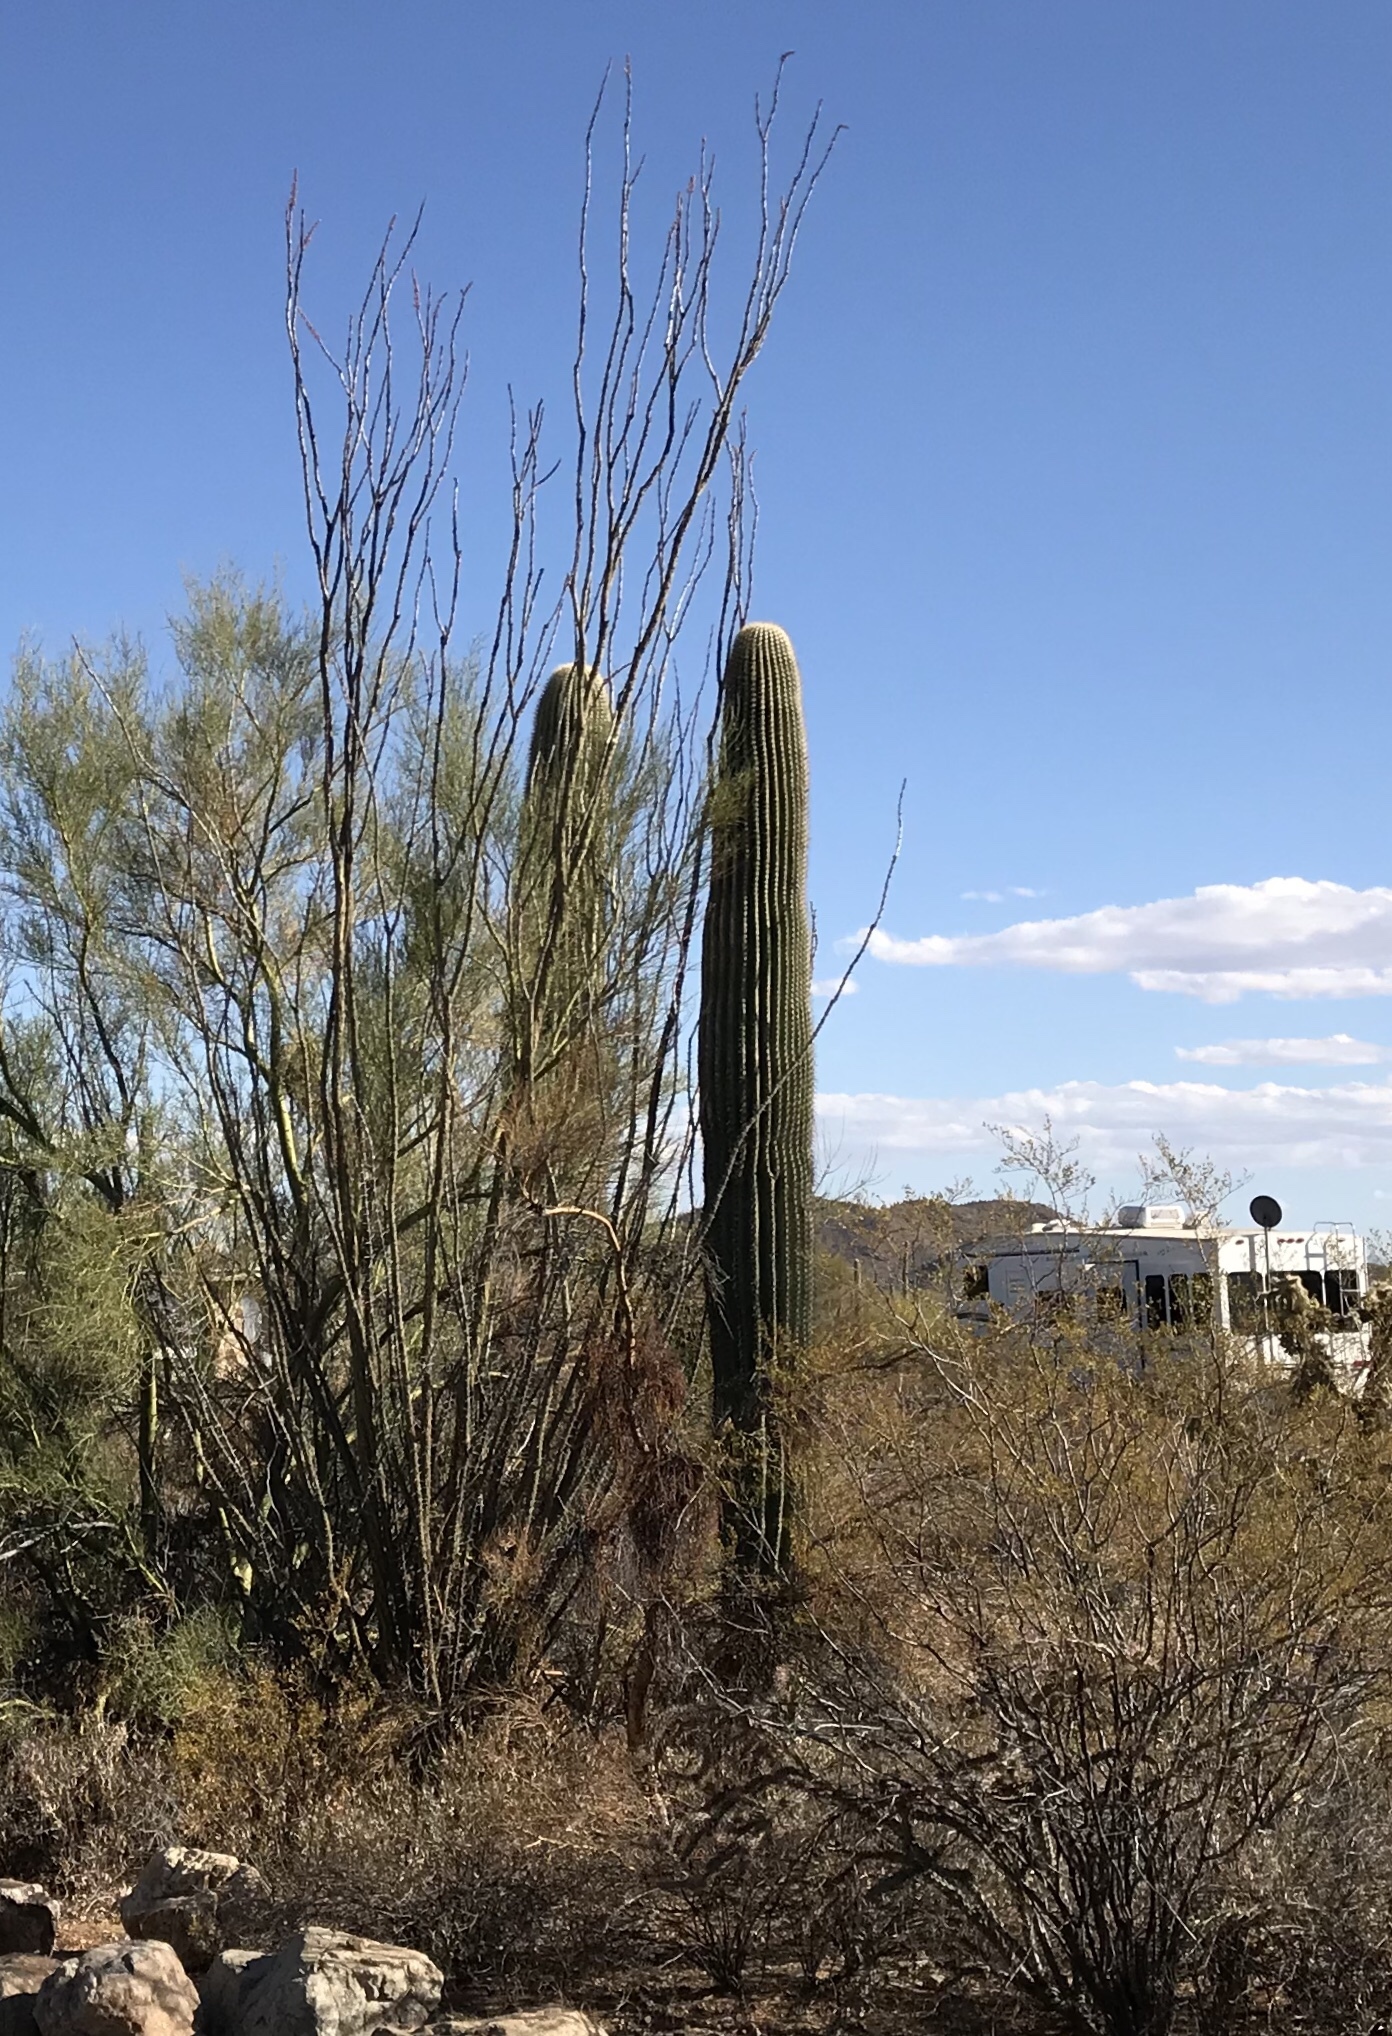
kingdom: Plantae
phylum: Tracheophyta
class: Magnoliopsida
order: Caryophyllales
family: Cactaceae
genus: Carnegiea
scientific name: Carnegiea gigantea
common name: Saguaro
